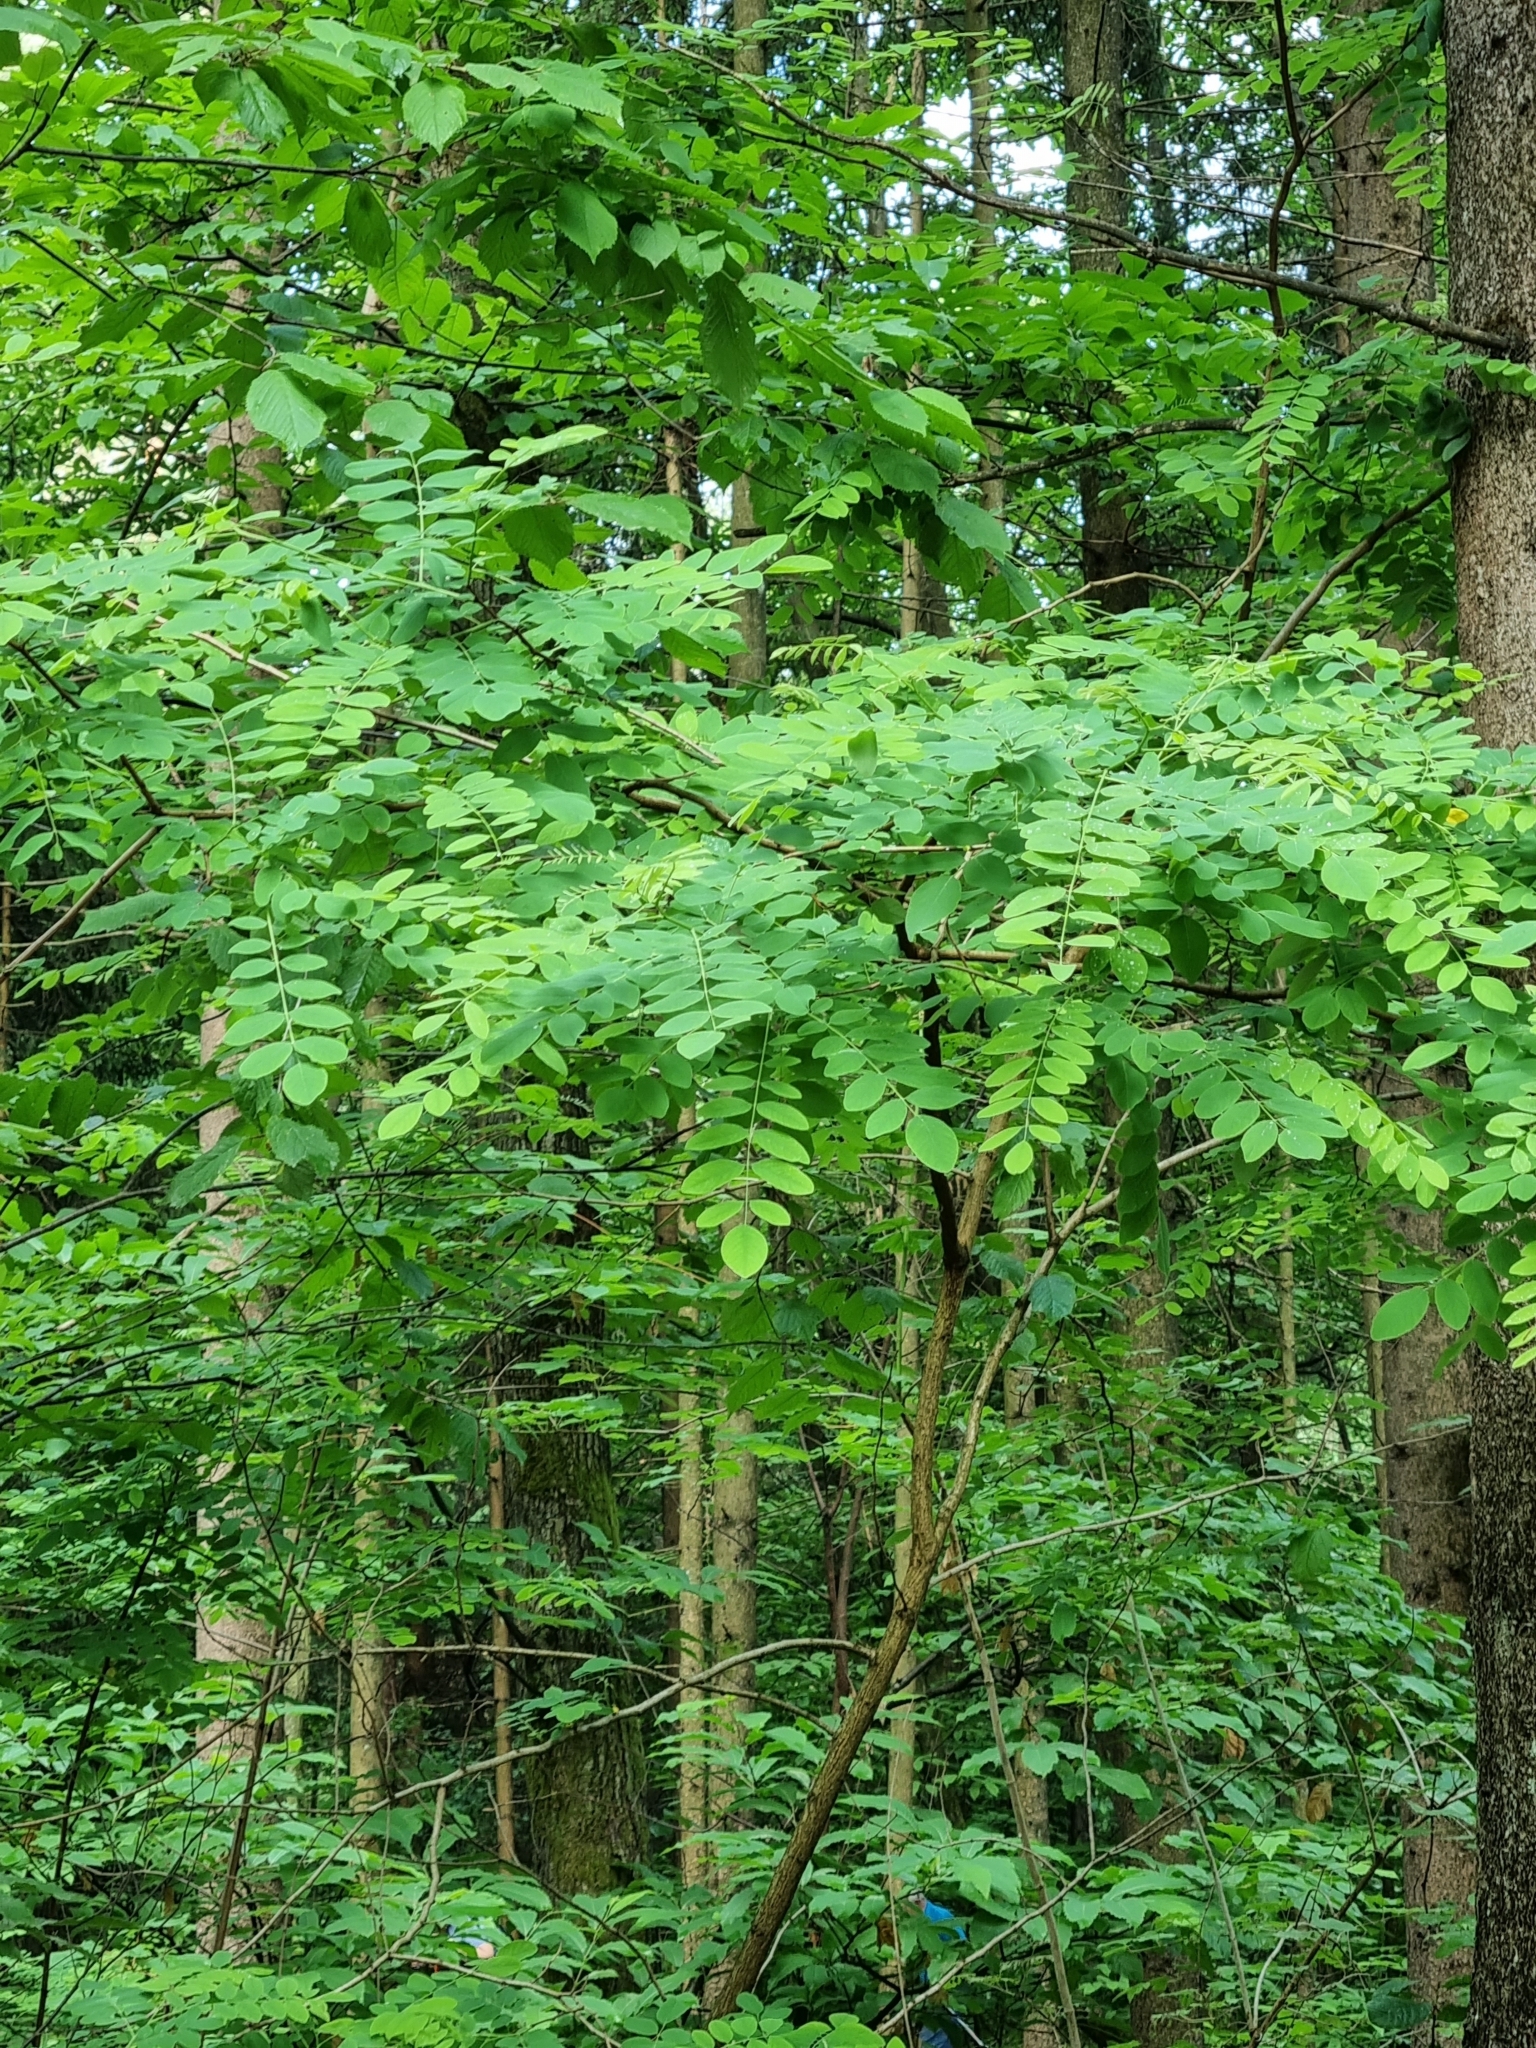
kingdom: Plantae
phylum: Tracheophyta
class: Magnoliopsida
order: Fabales
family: Fabaceae
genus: Robinia
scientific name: Robinia pseudoacacia
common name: Black locust
